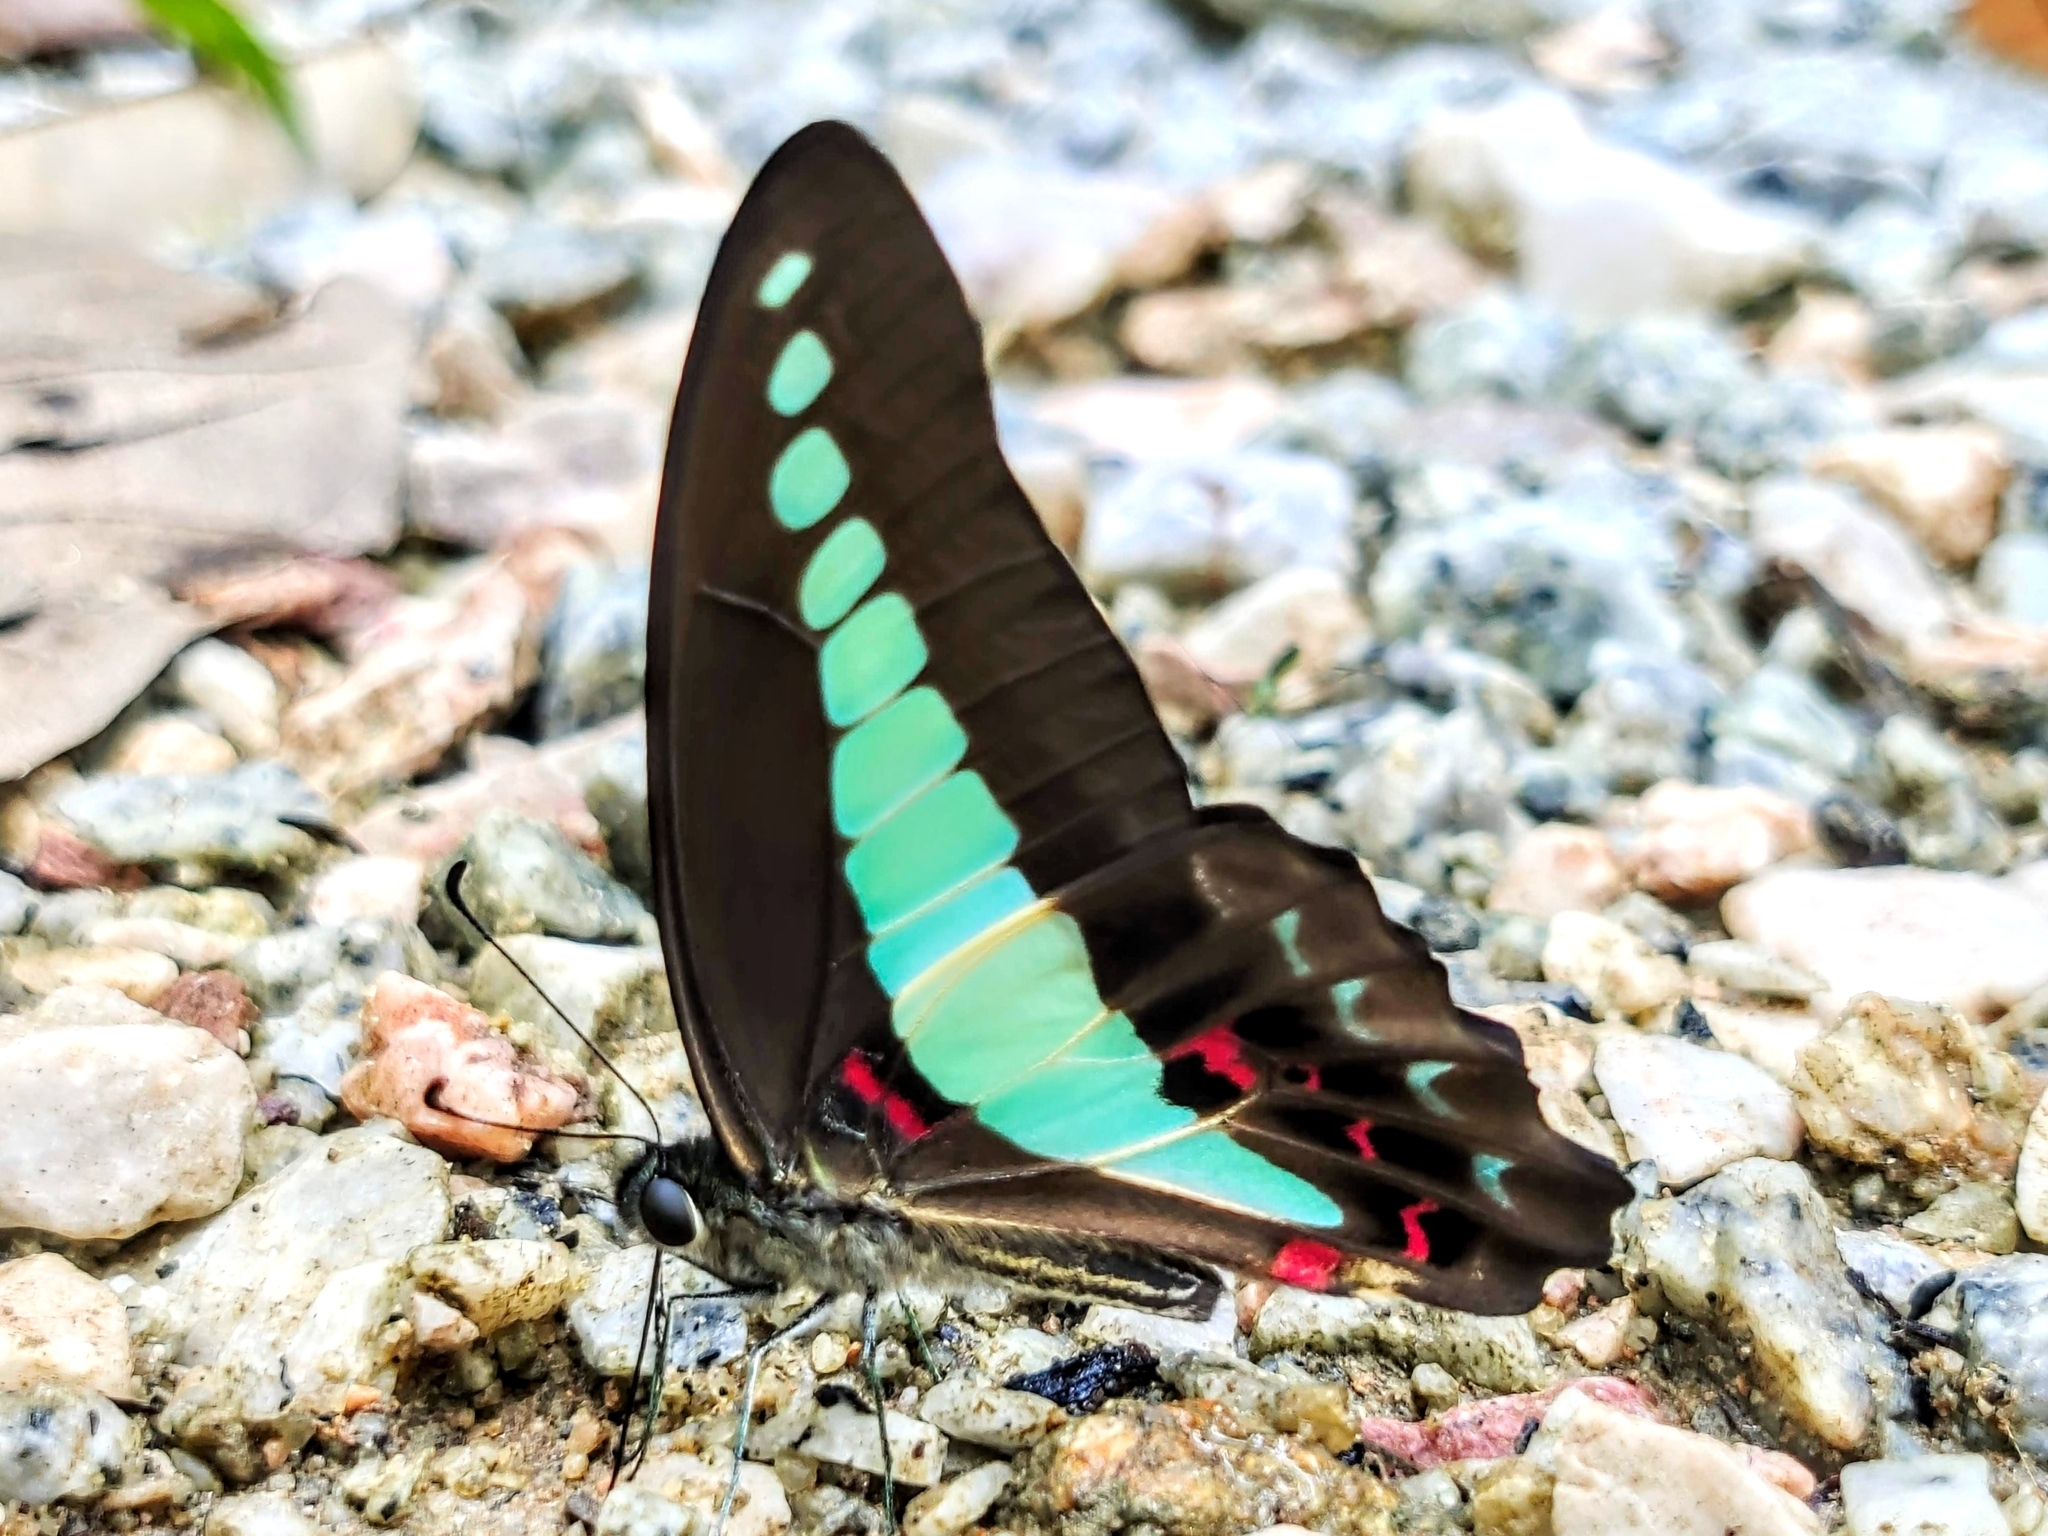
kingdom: Fungi
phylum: Ascomycota
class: Sordariomycetes
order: Microascales
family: Microascaceae
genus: Graphium
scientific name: Graphium sarpedon
